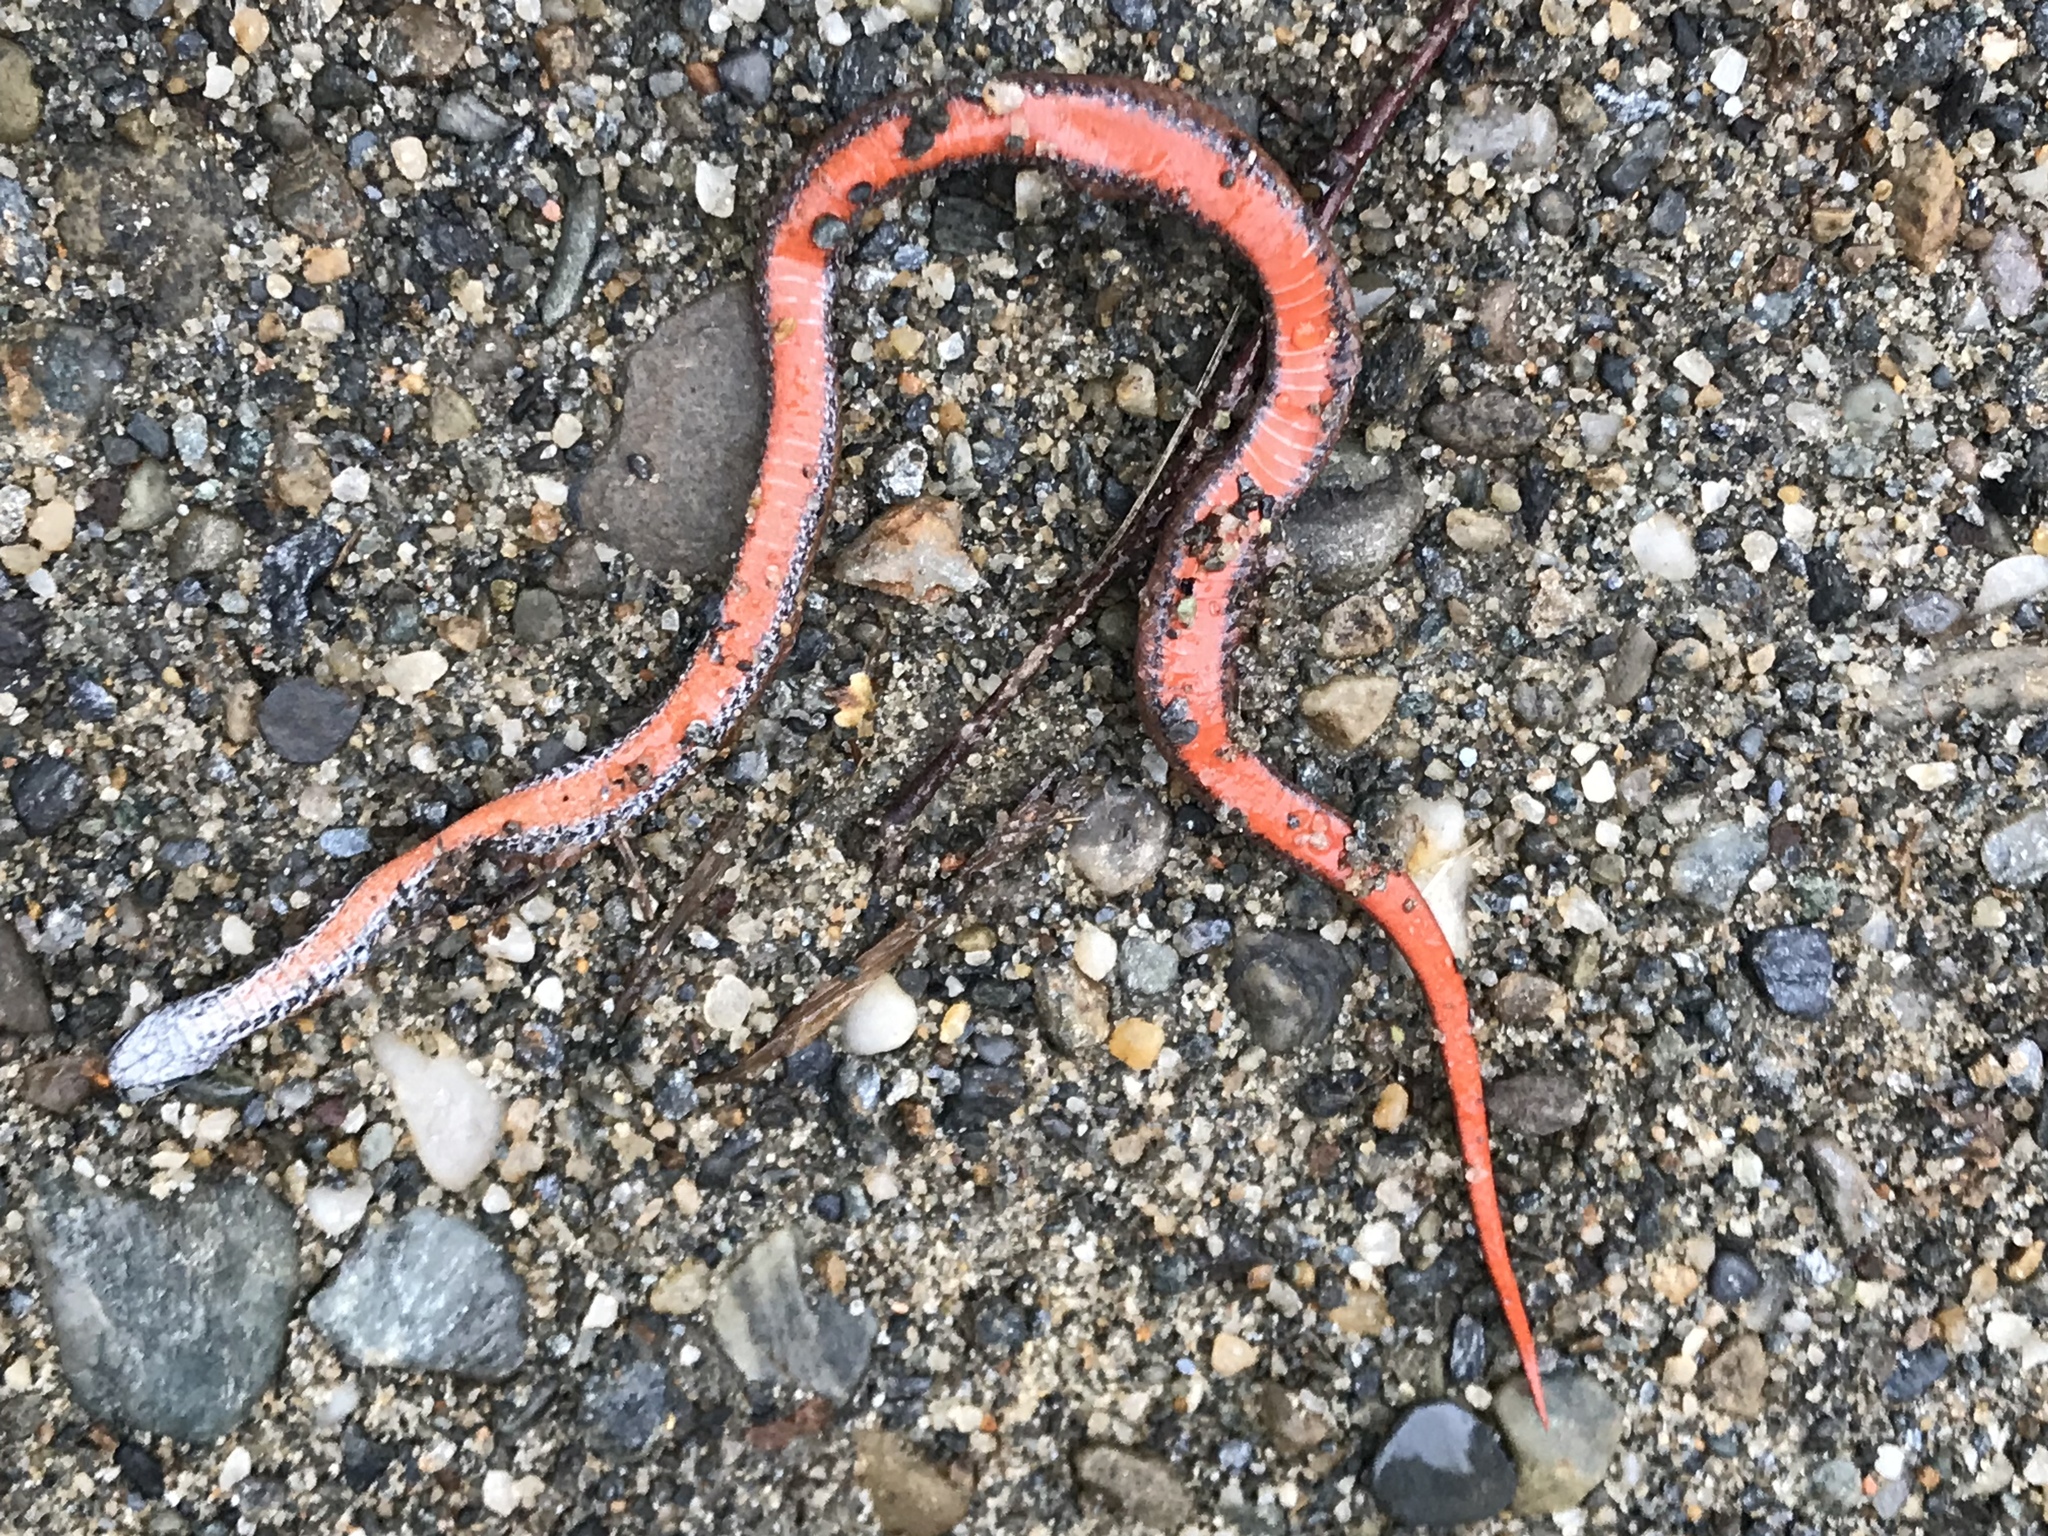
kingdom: Animalia
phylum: Chordata
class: Squamata
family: Colubridae
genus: Storeria
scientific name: Storeria occipitomaculata
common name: Redbelly snake
